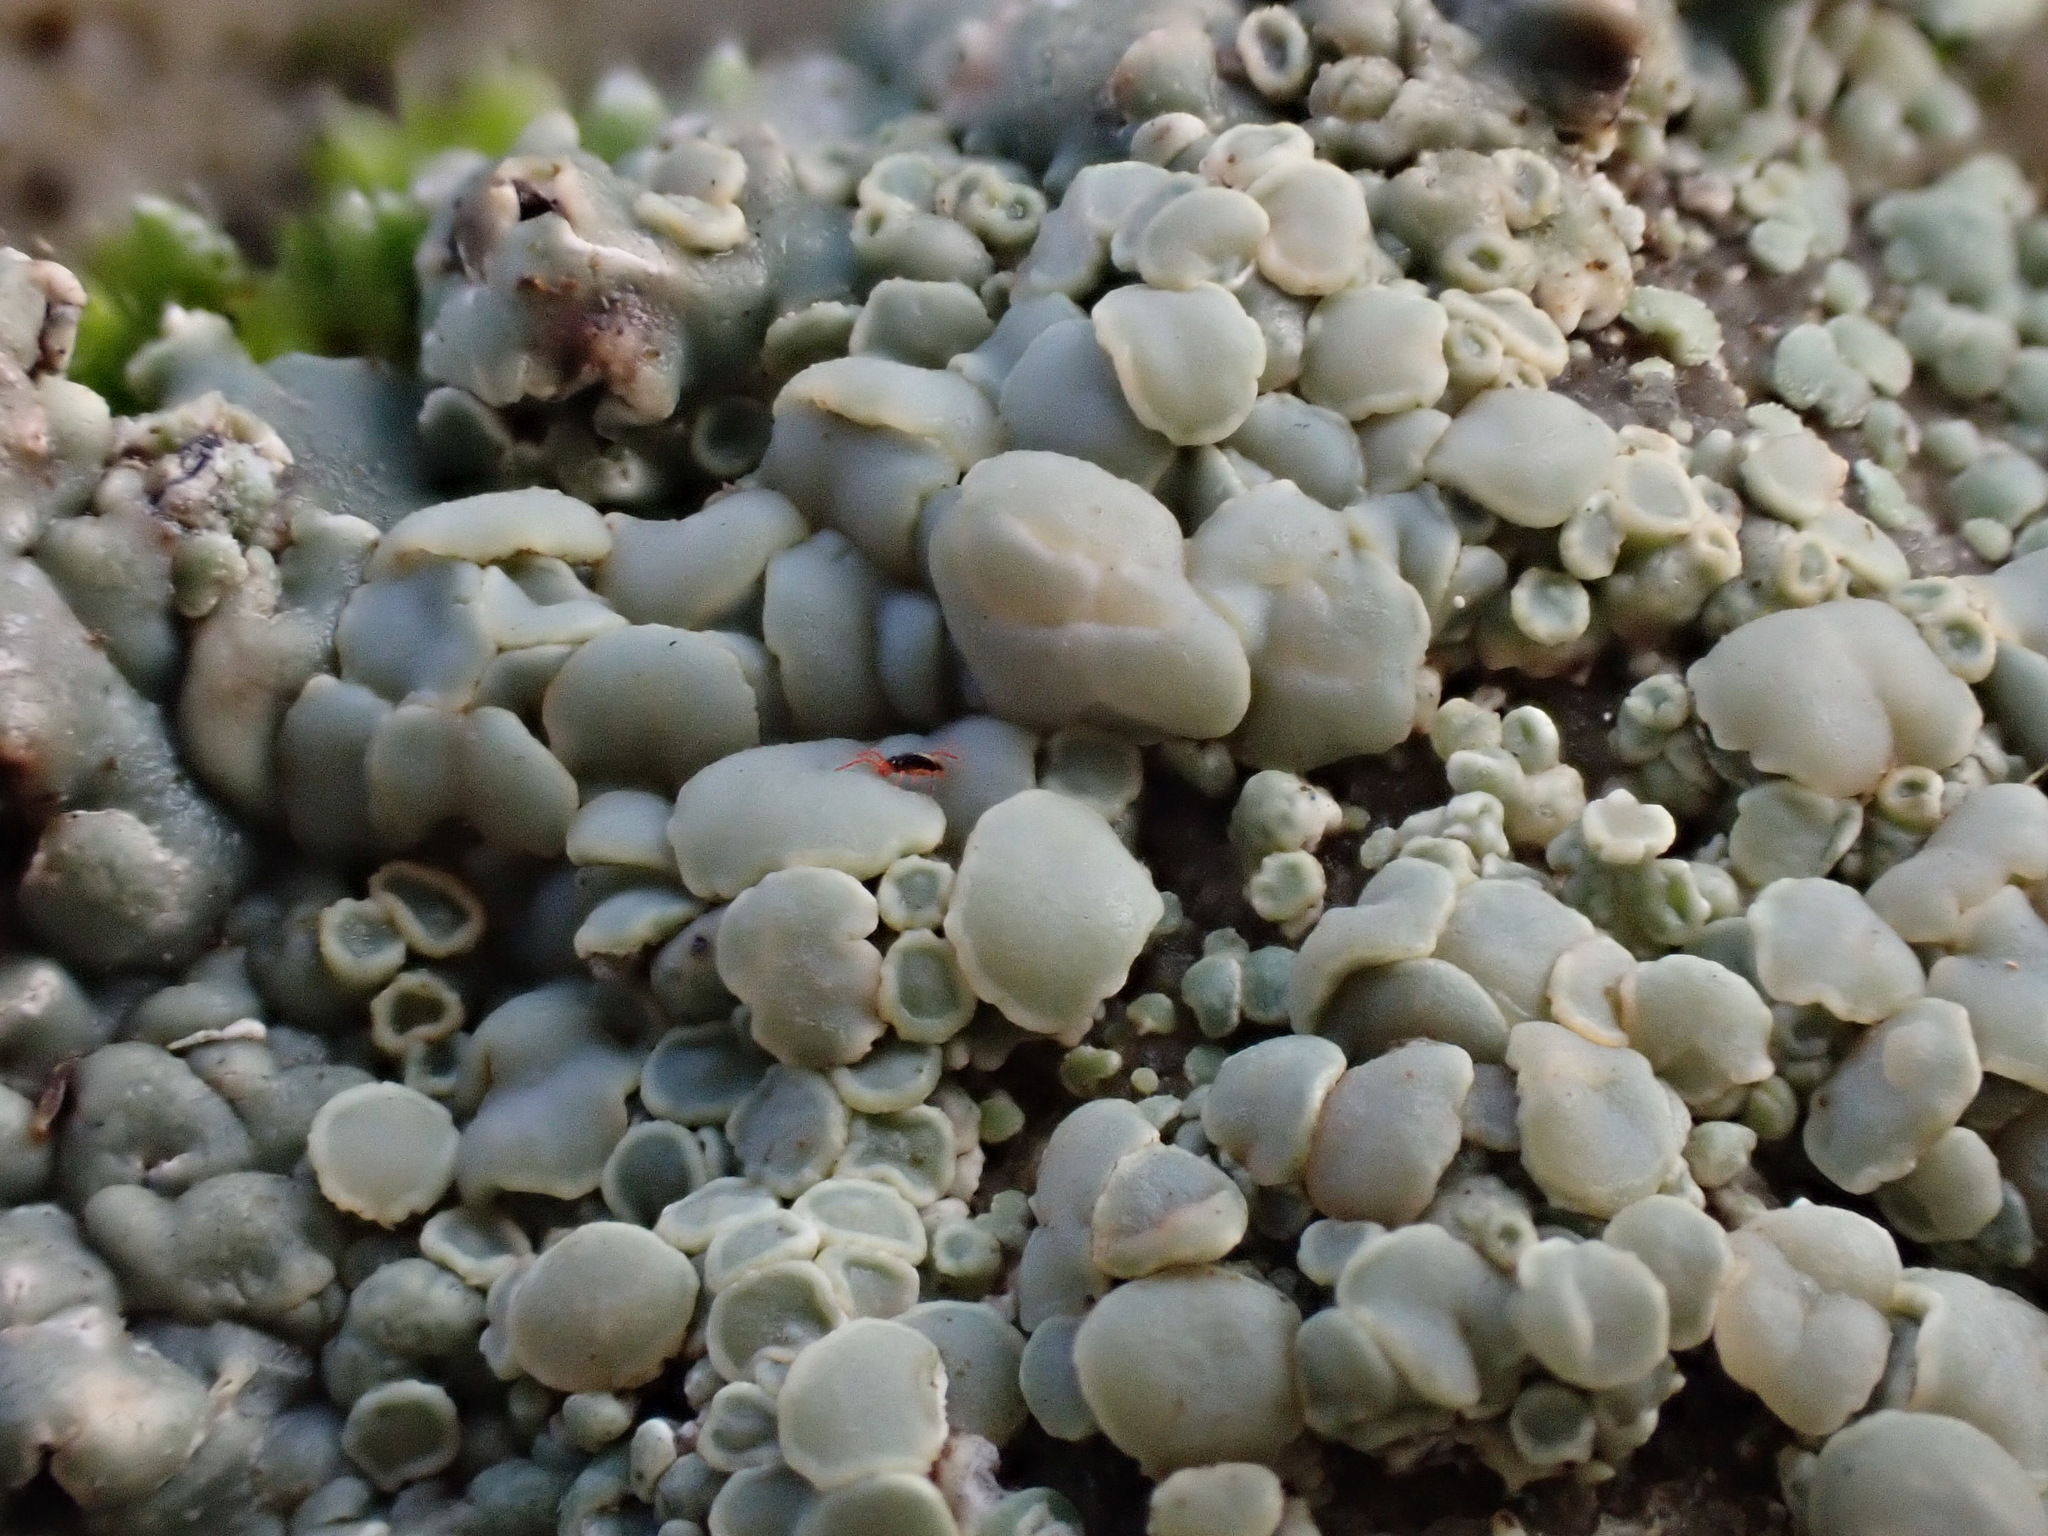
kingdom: Fungi
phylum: Ascomycota
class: Lecanoromycetes
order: Lecanorales
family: Lecanoraceae
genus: Protoparmeliopsis
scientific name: Protoparmeliopsis muralis
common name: Stonewall rim lichen
